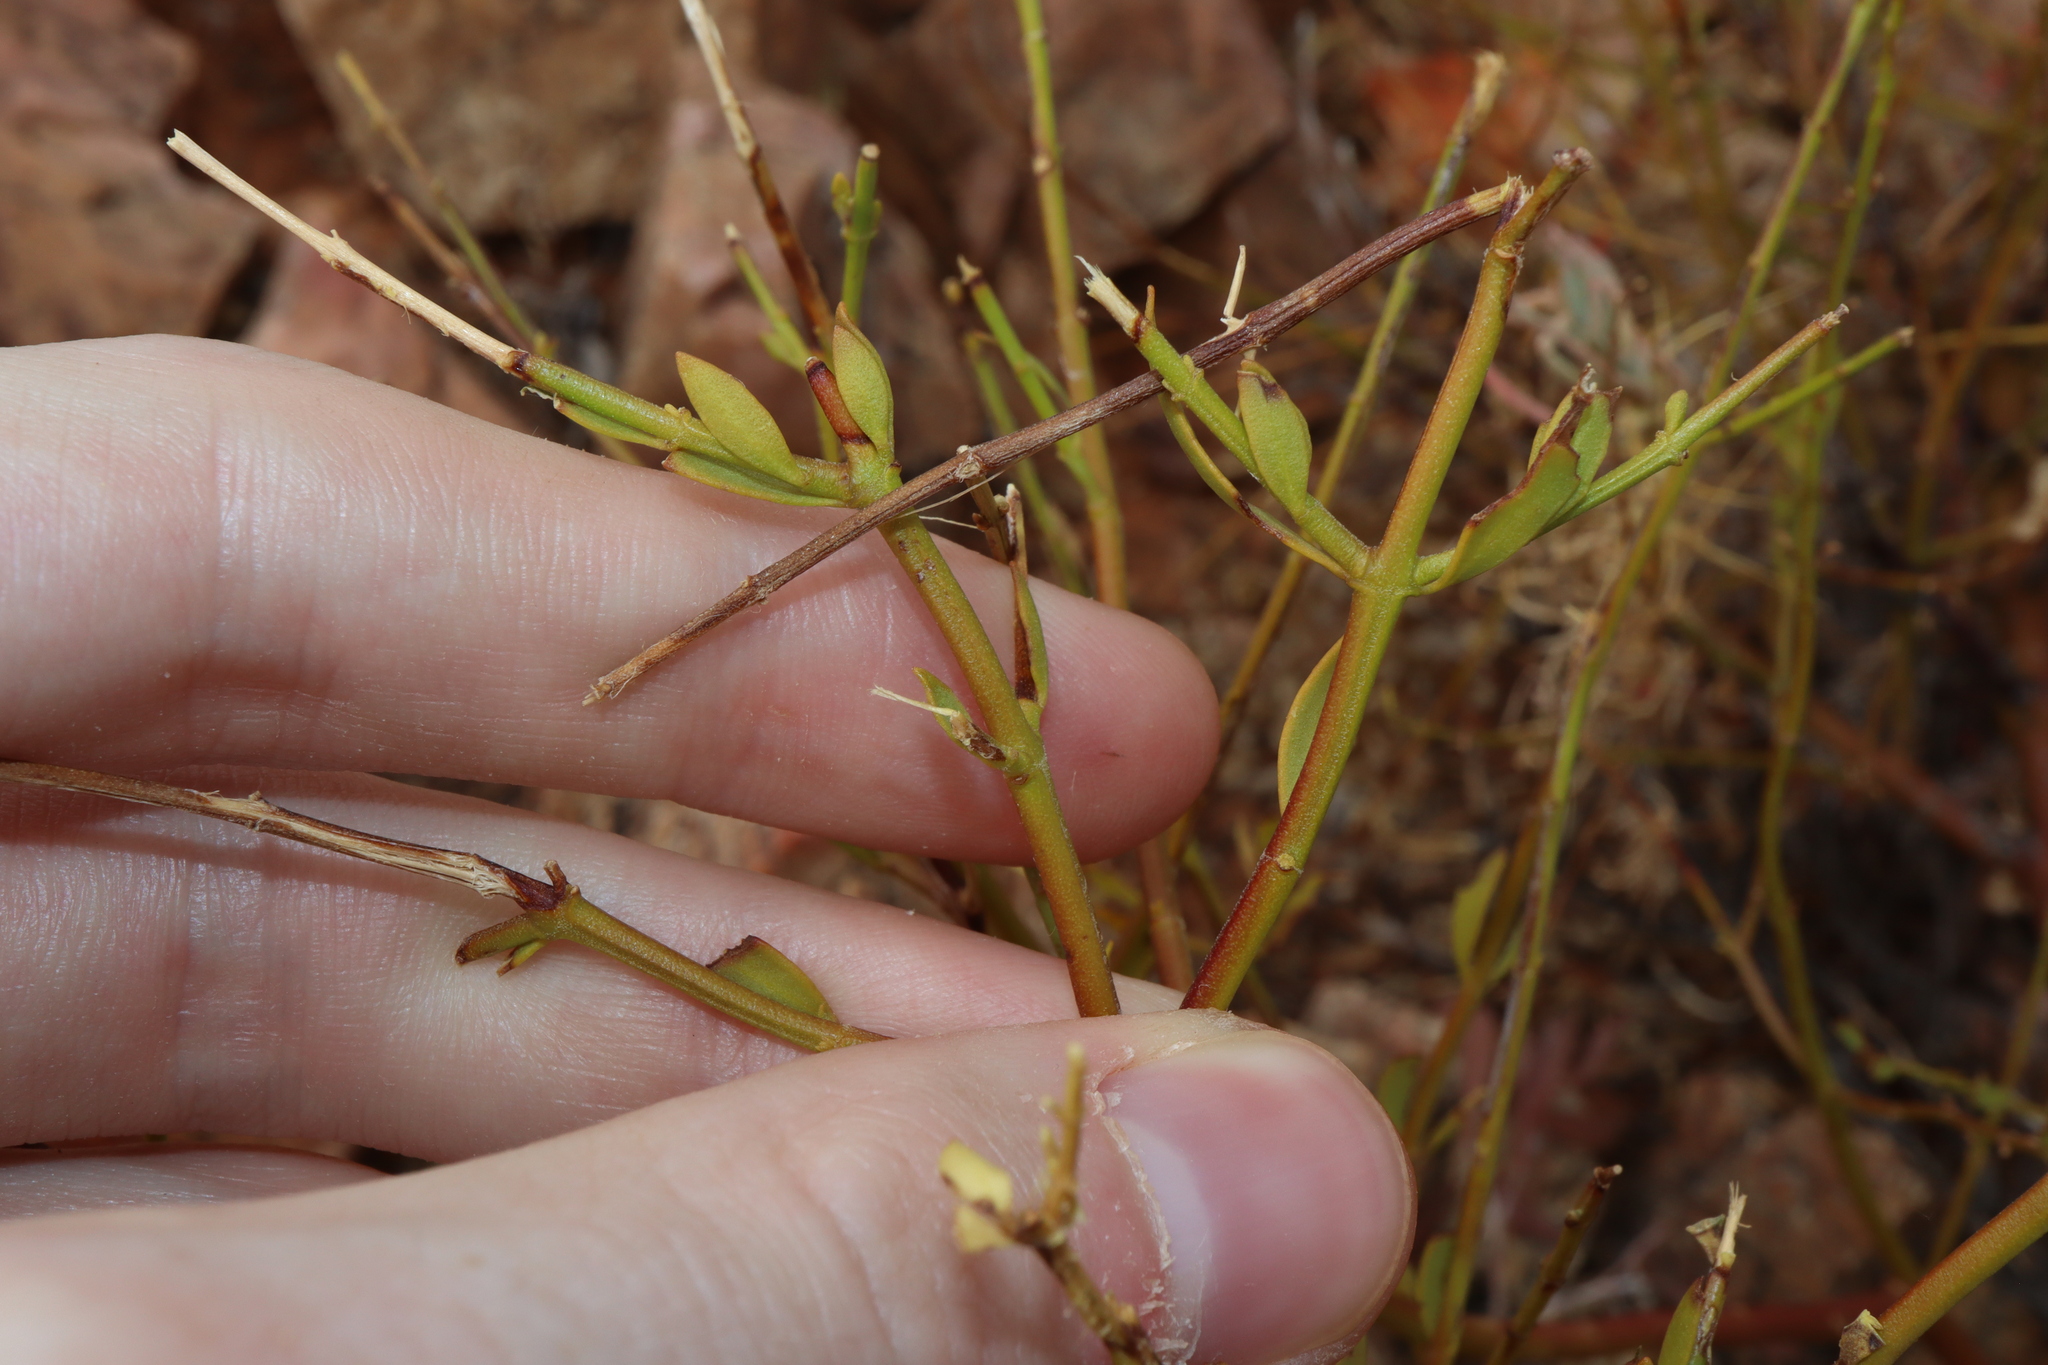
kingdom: Plantae
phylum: Tracheophyta
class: Magnoliopsida
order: Lamiales
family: Lamiaceae
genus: Prostanthera
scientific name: Prostanthera striatiflora
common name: Jockey's-cap
